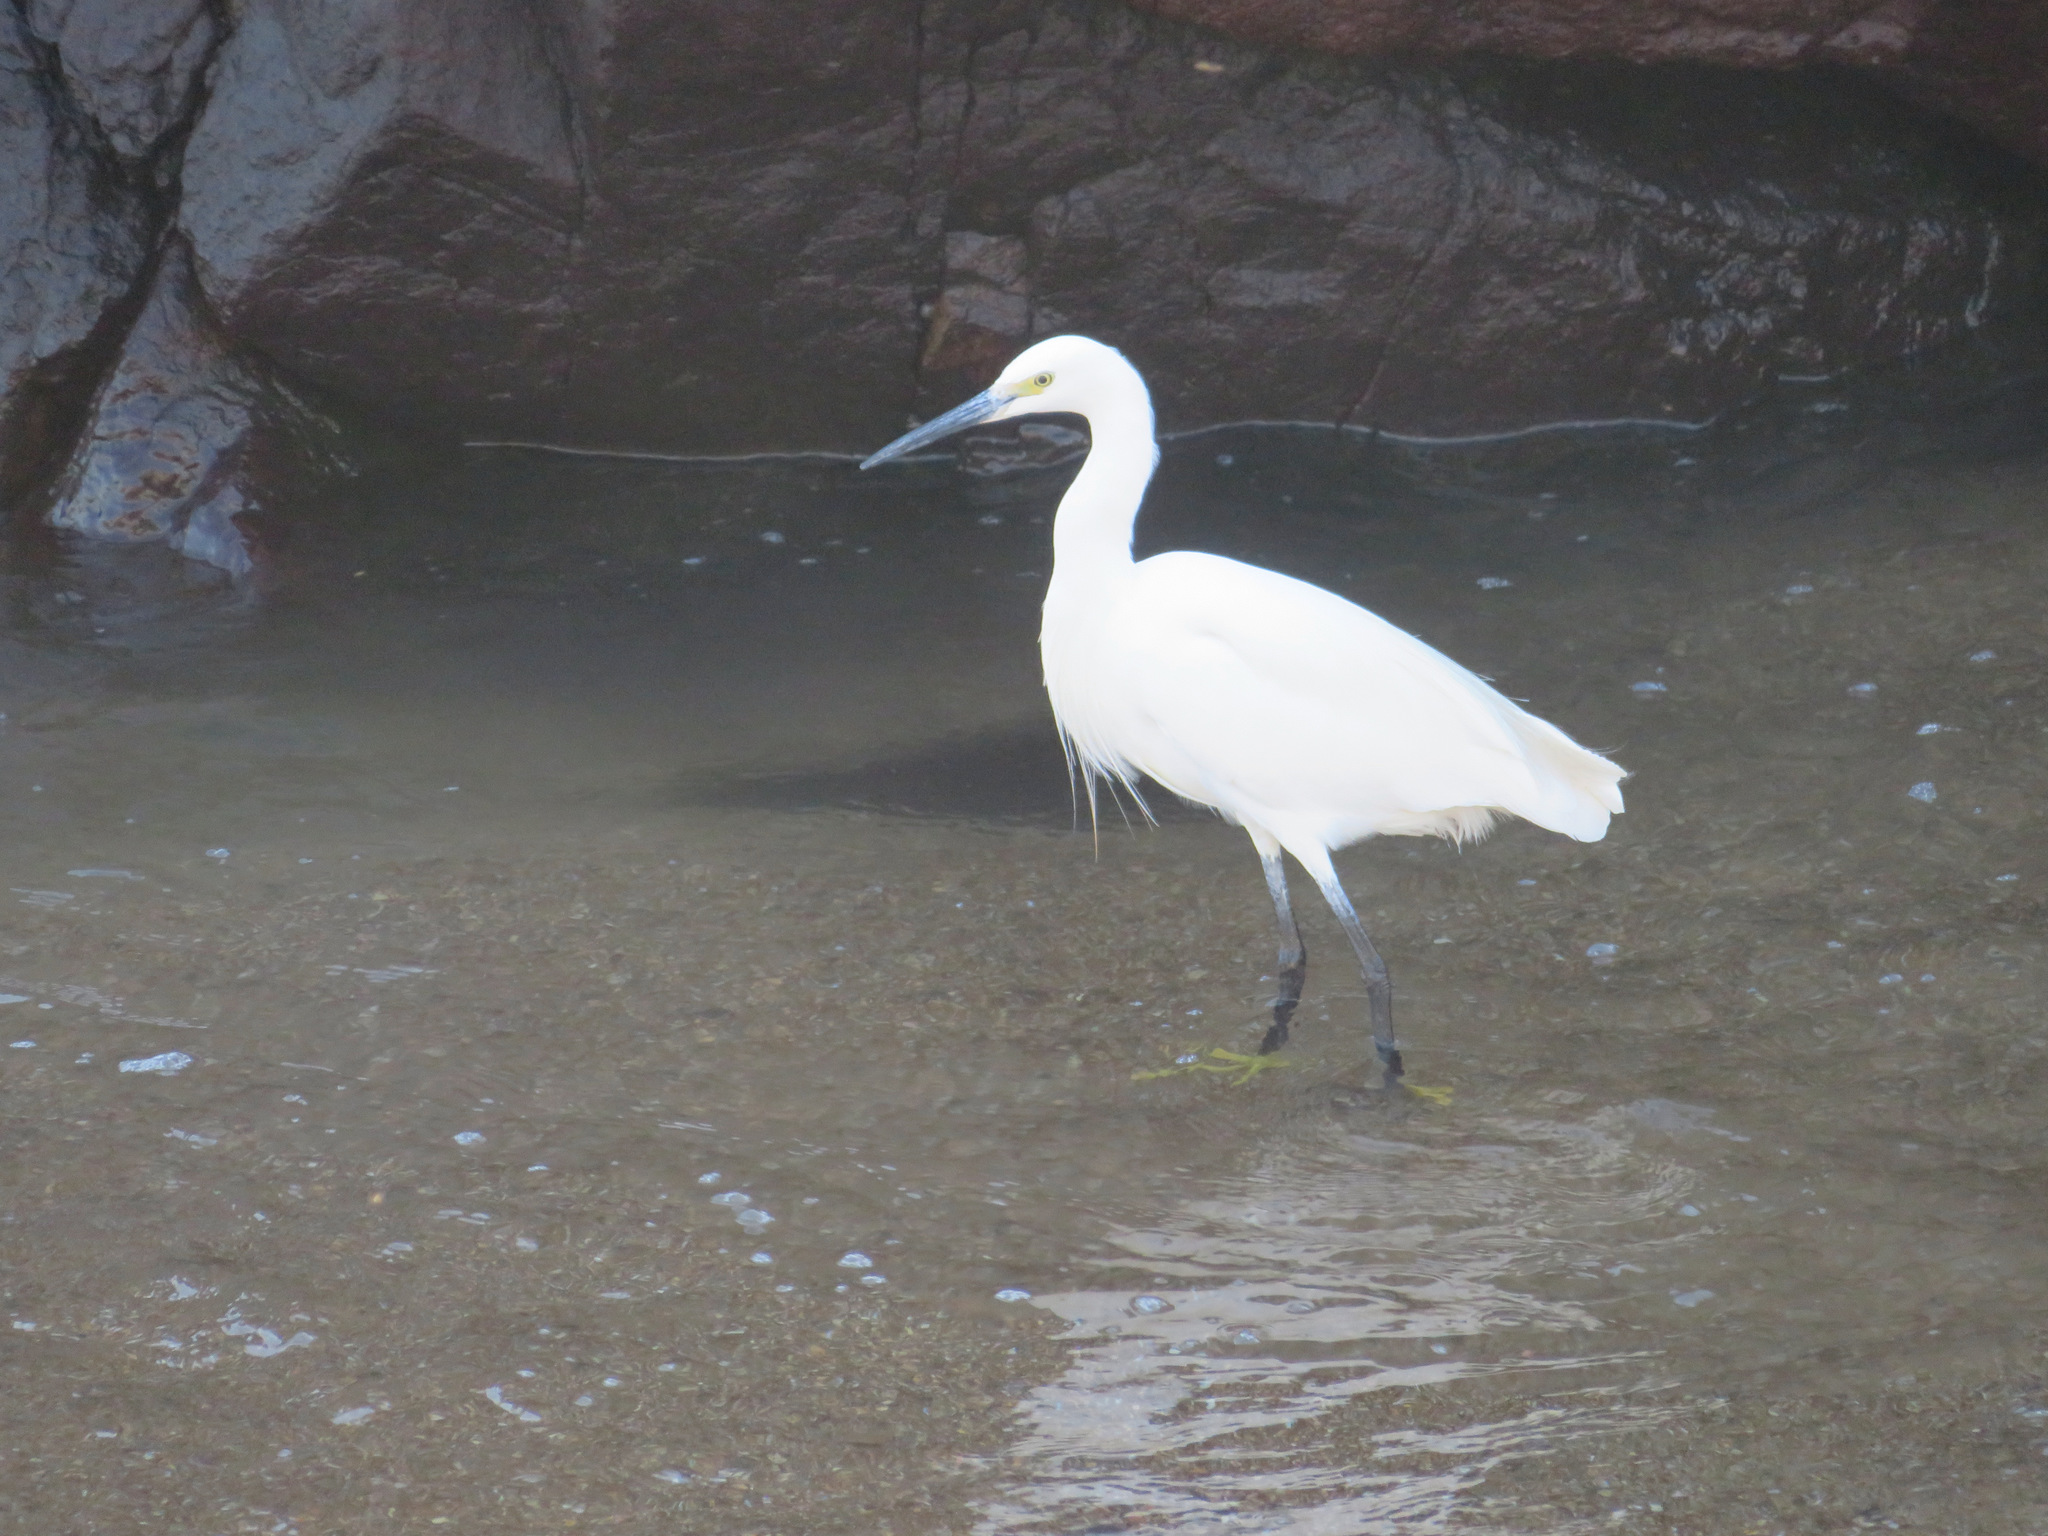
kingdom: Animalia
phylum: Chordata
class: Aves
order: Pelecaniformes
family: Ardeidae
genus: Egretta
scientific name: Egretta garzetta
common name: Little egret
